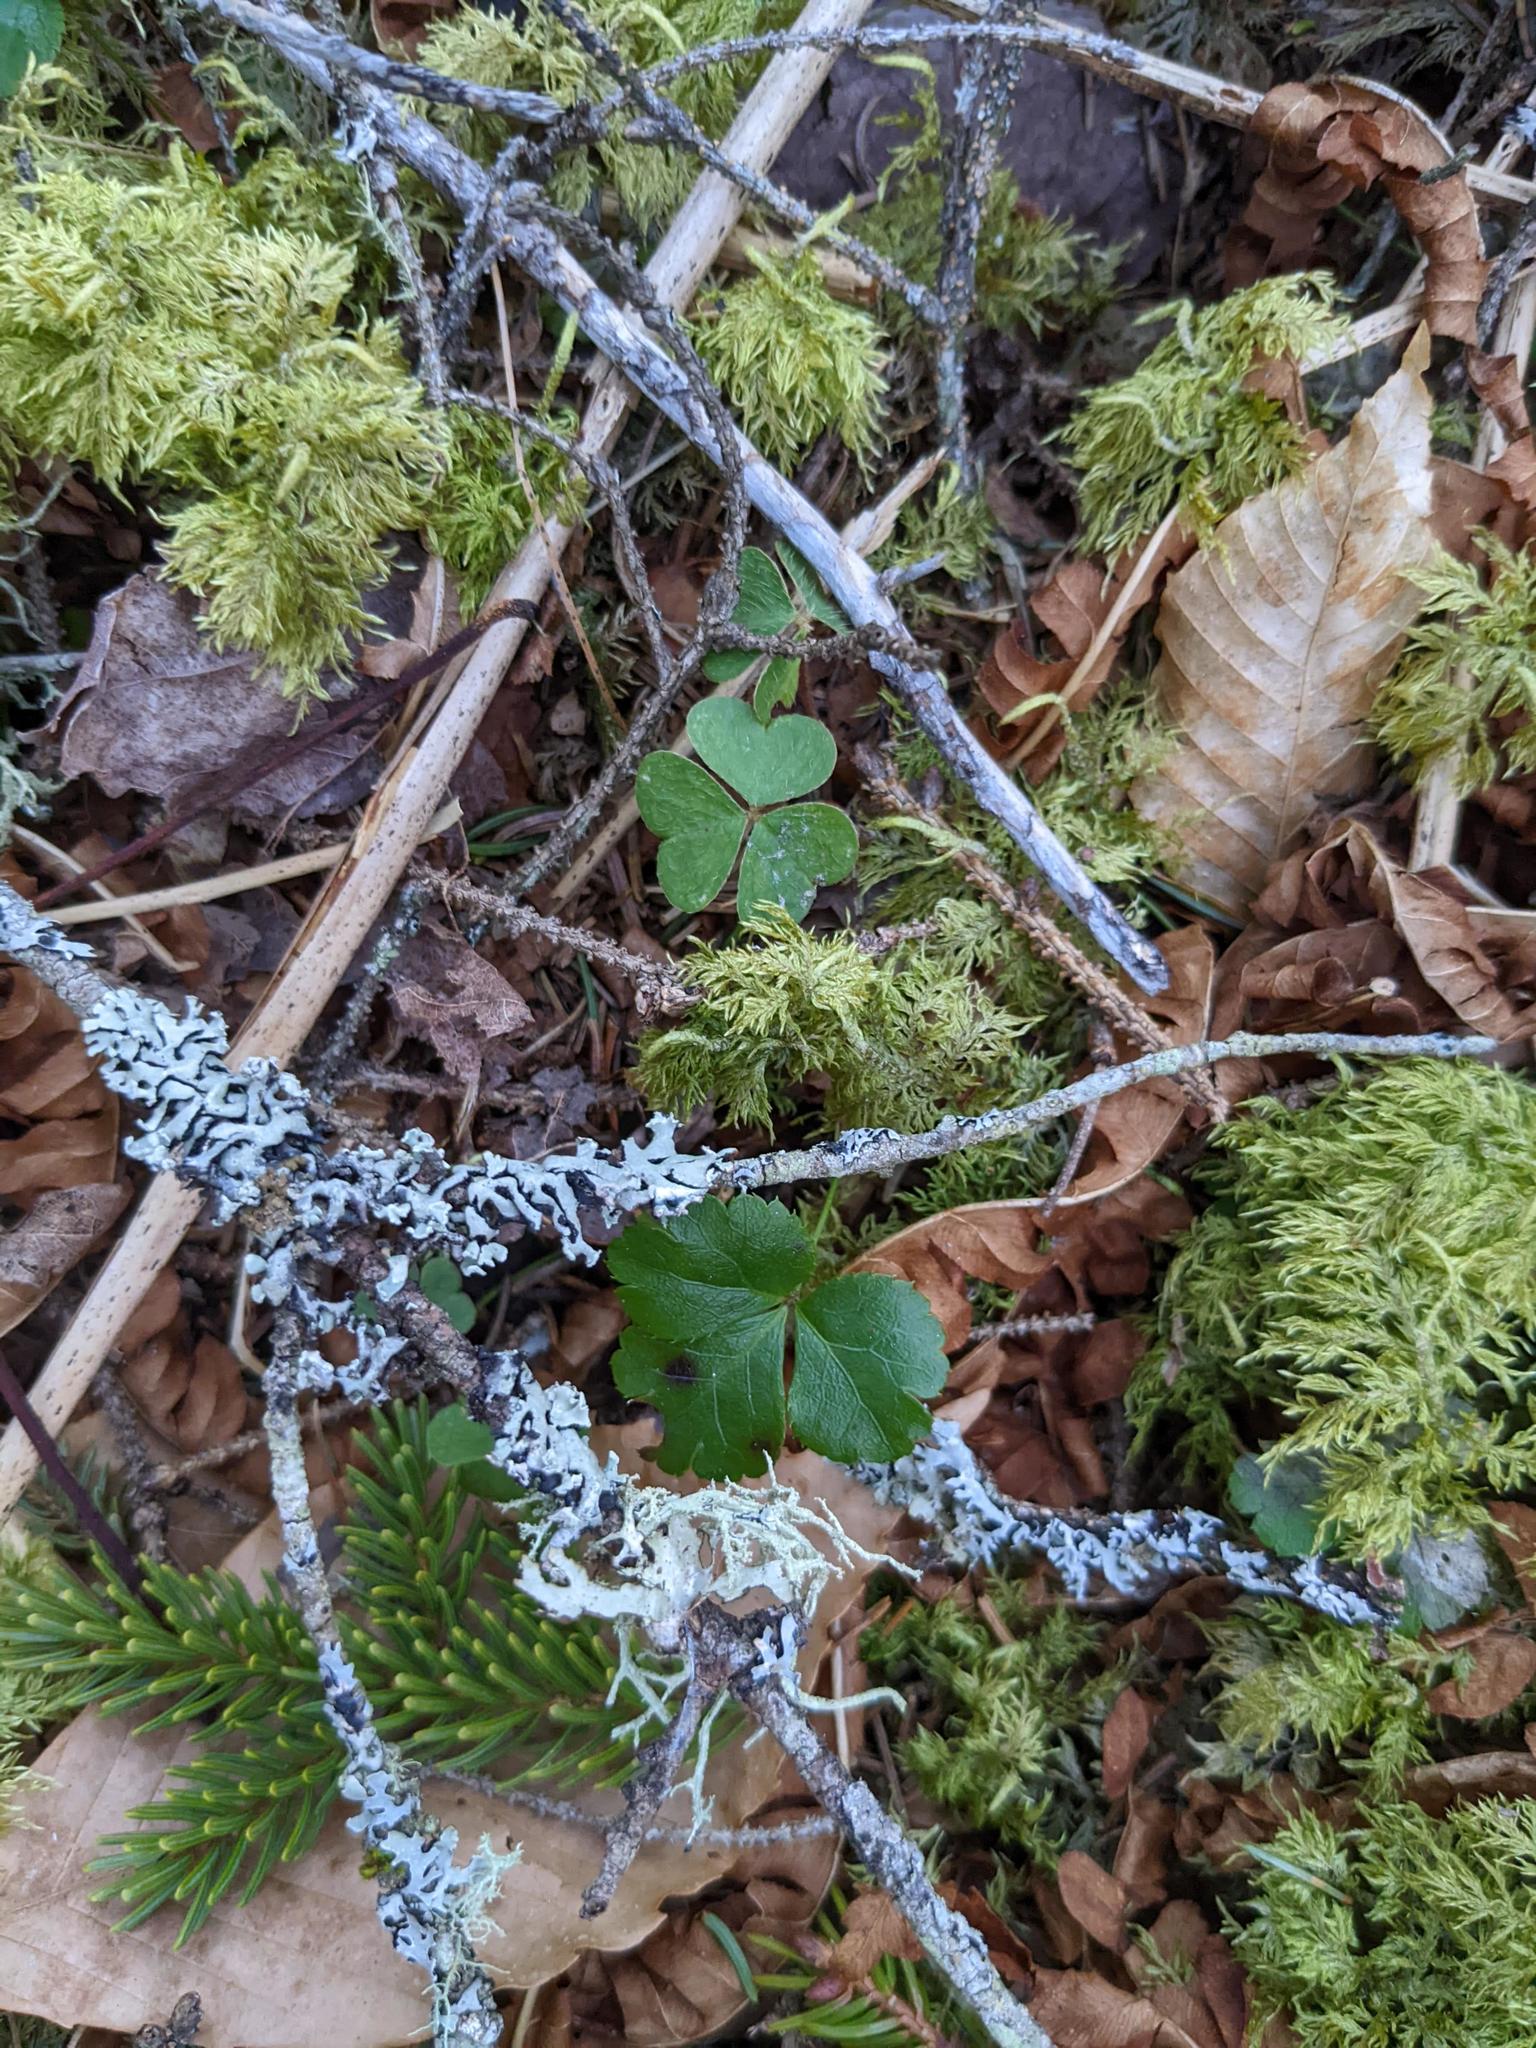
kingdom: Plantae
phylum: Tracheophyta
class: Magnoliopsida
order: Oxalidales
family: Oxalidaceae
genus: Oxalis
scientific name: Oxalis montana
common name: American wood-sorrel
